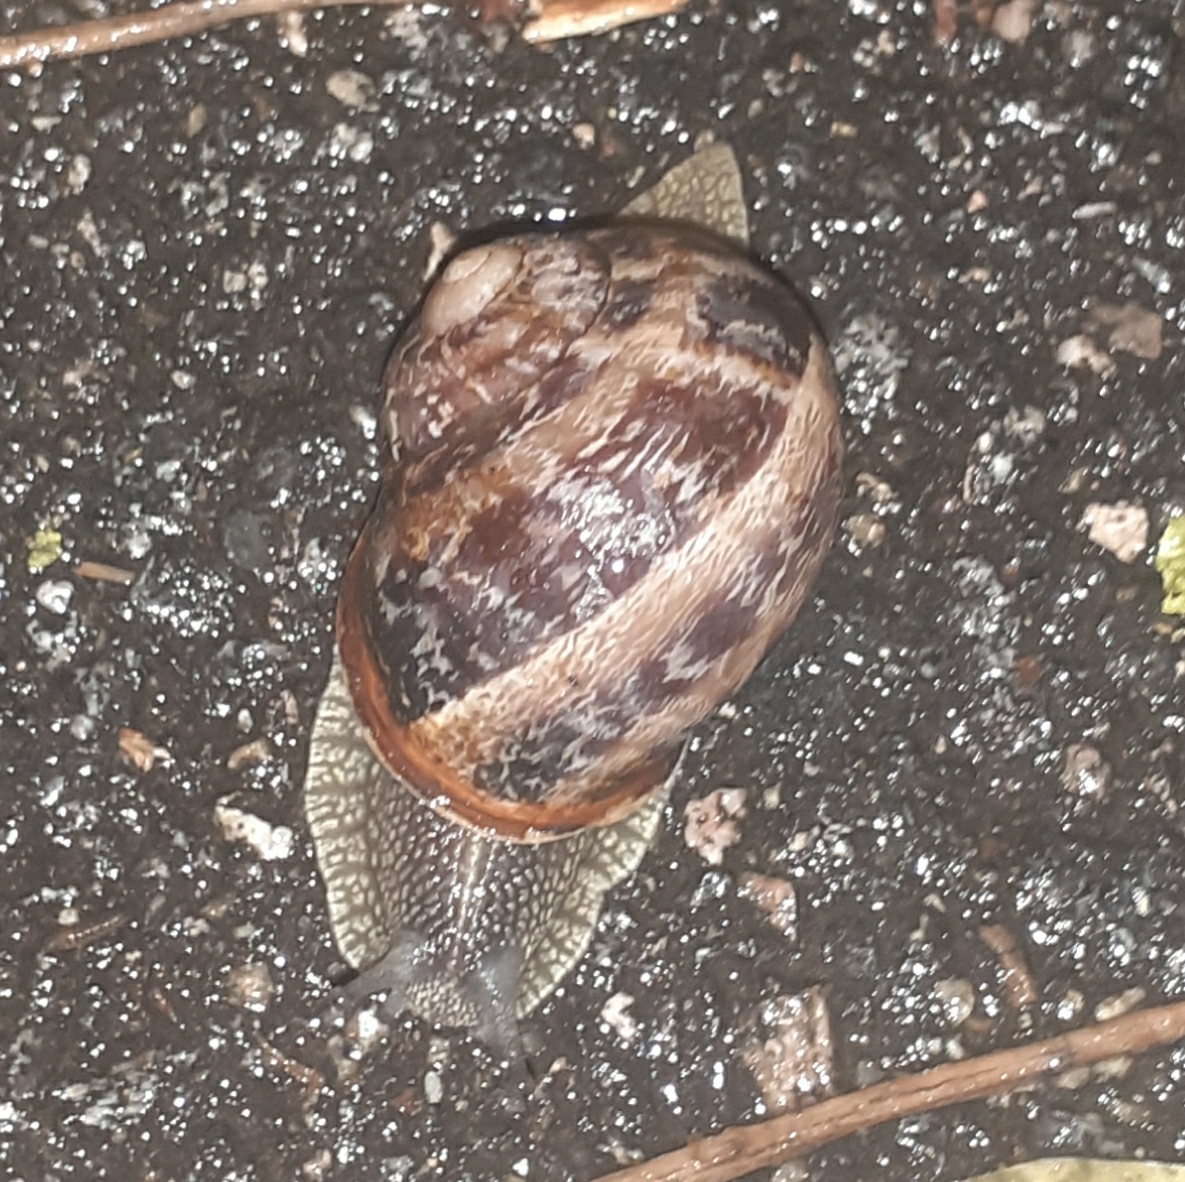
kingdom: Animalia
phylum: Mollusca
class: Gastropoda
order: Stylommatophora
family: Helicidae
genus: Cornu
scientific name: Cornu aspersum
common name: Brown garden snail
